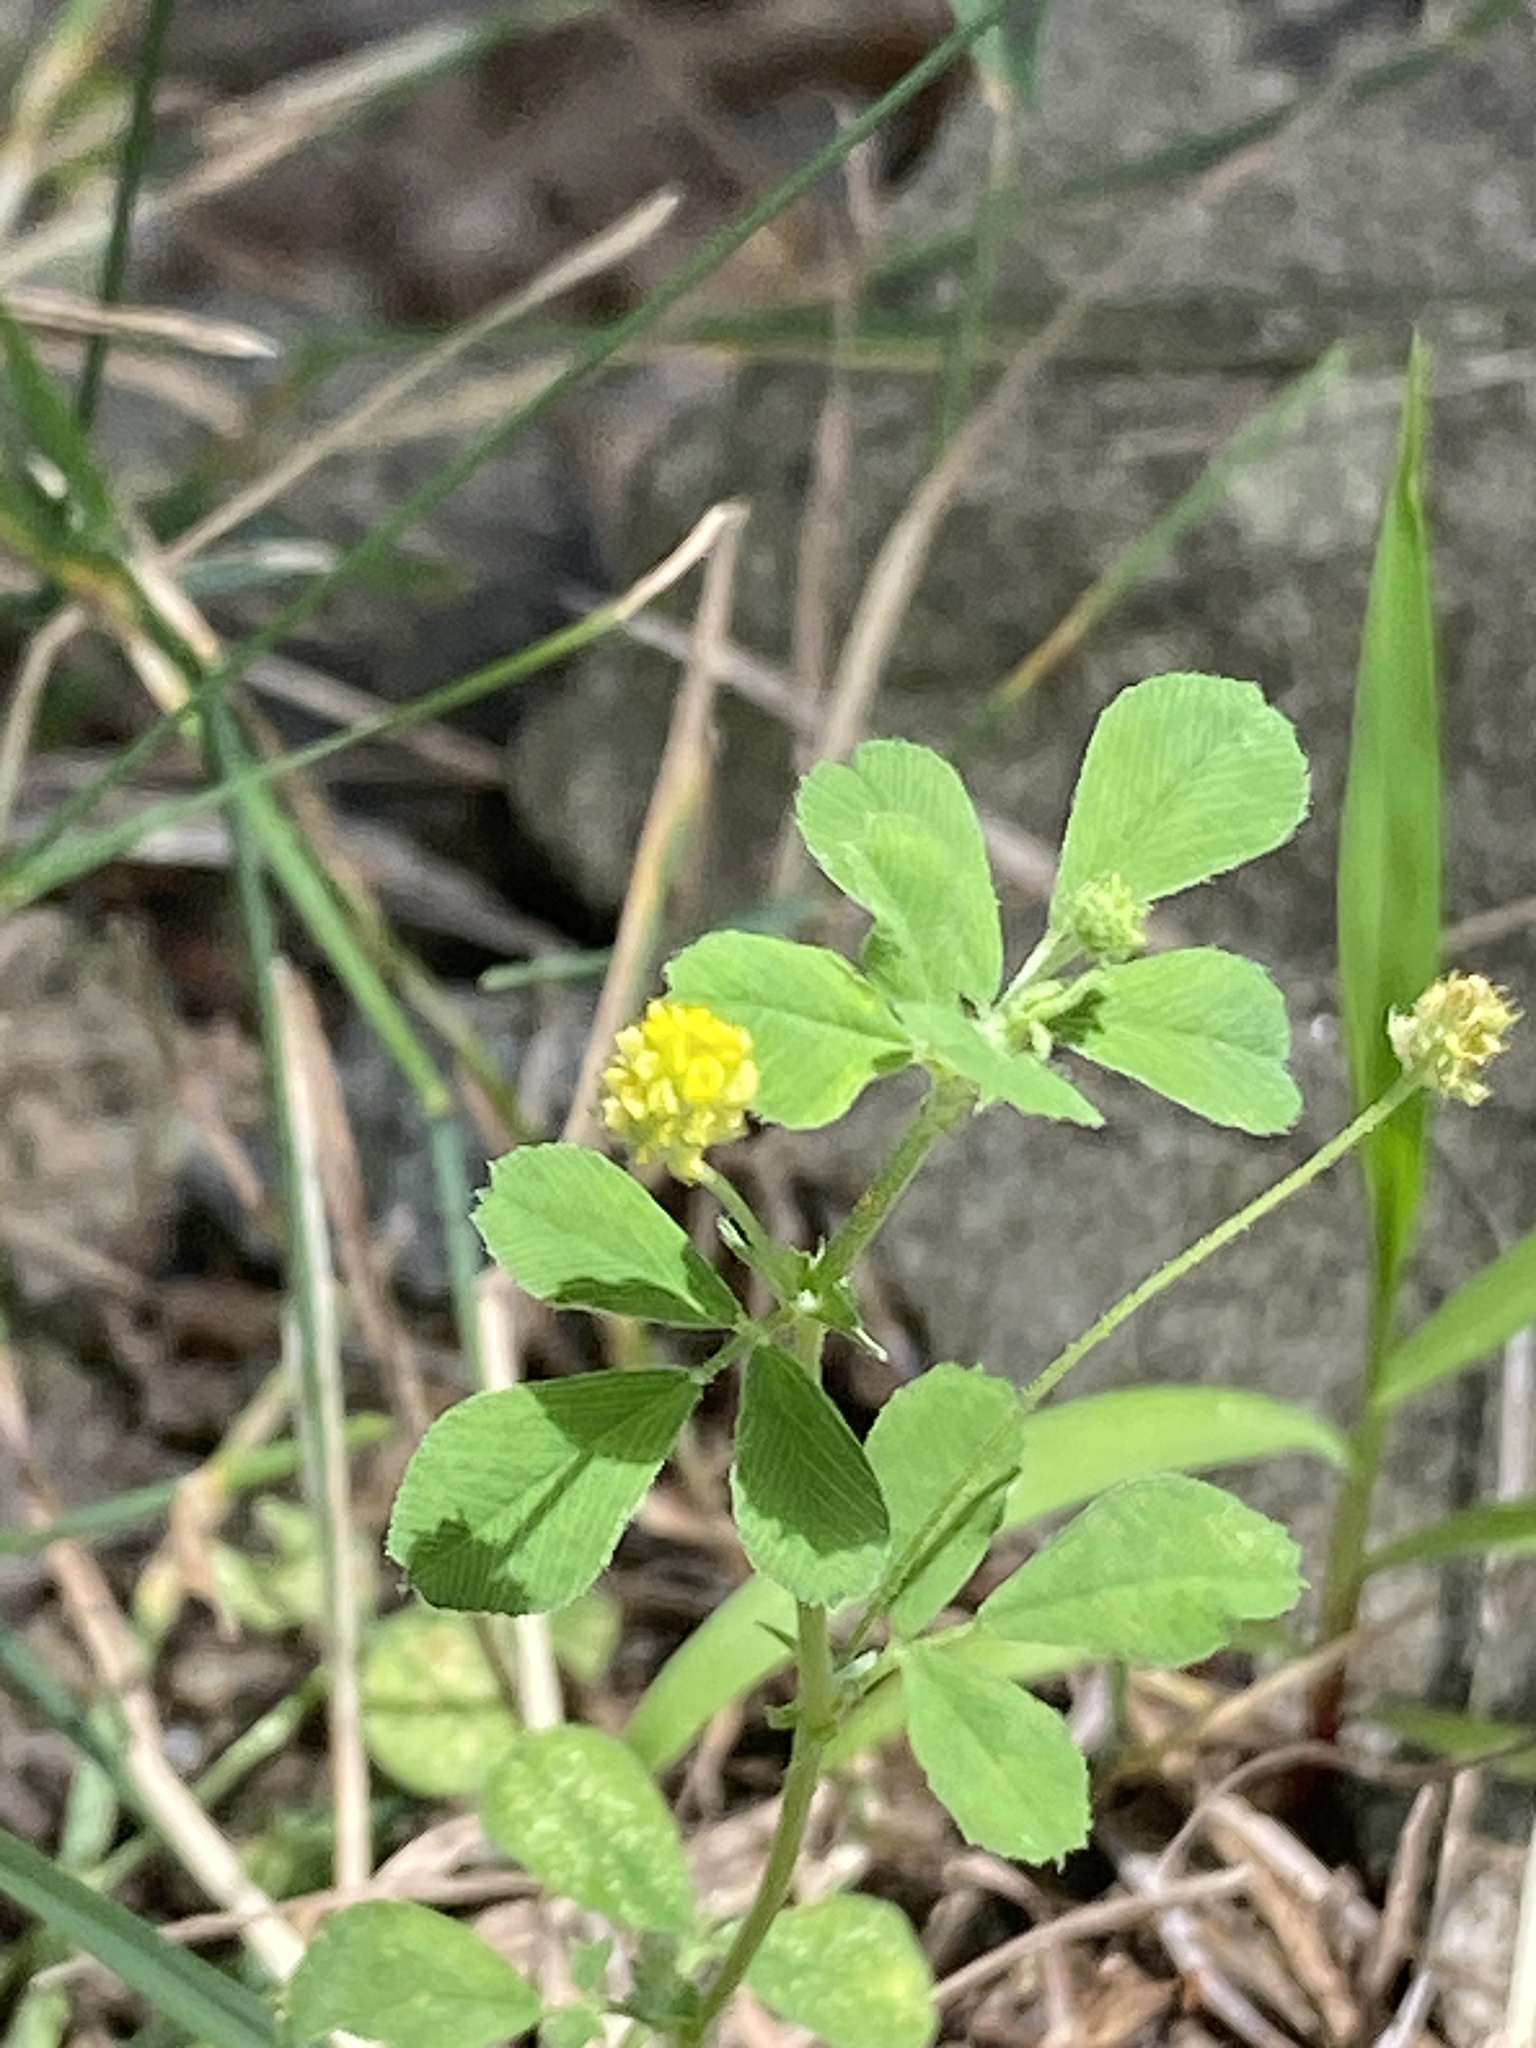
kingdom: Plantae
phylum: Tracheophyta
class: Magnoliopsida
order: Fabales
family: Fabaceae
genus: Medicago
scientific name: Medicago lupulina
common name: Black medick
